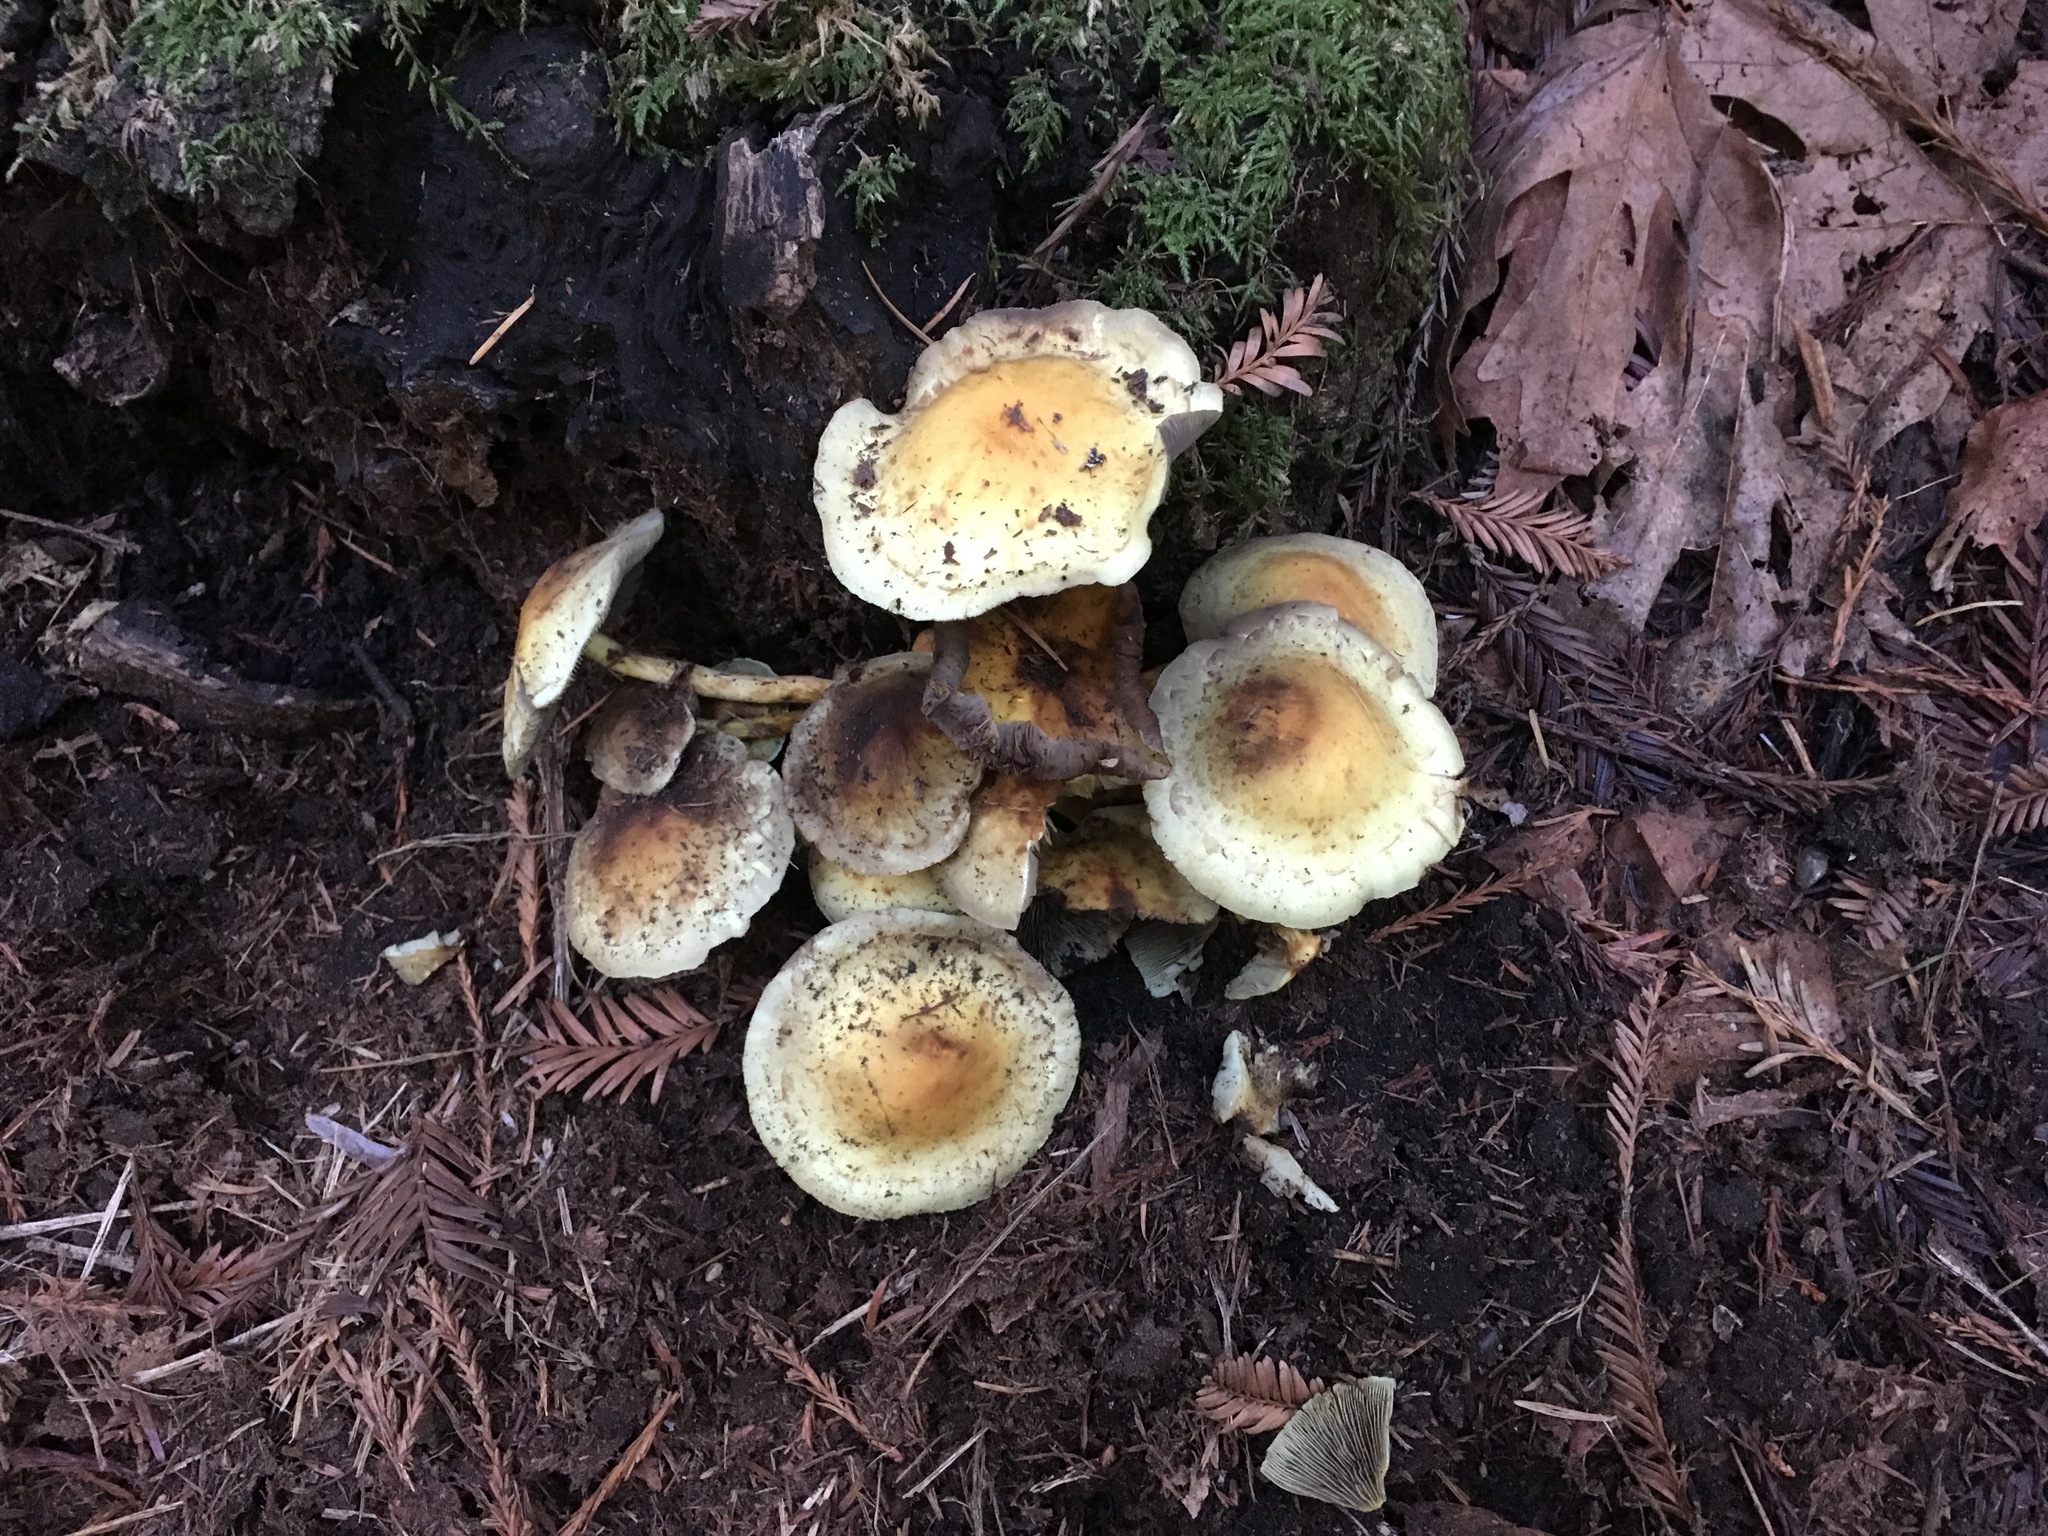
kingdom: Fungi
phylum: Basidiomycota
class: Agaricomycetes
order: Agaricales
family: Strophariaceae
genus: Hypholoma
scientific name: Hypholoma fasciculare
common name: Sulphur tuft
